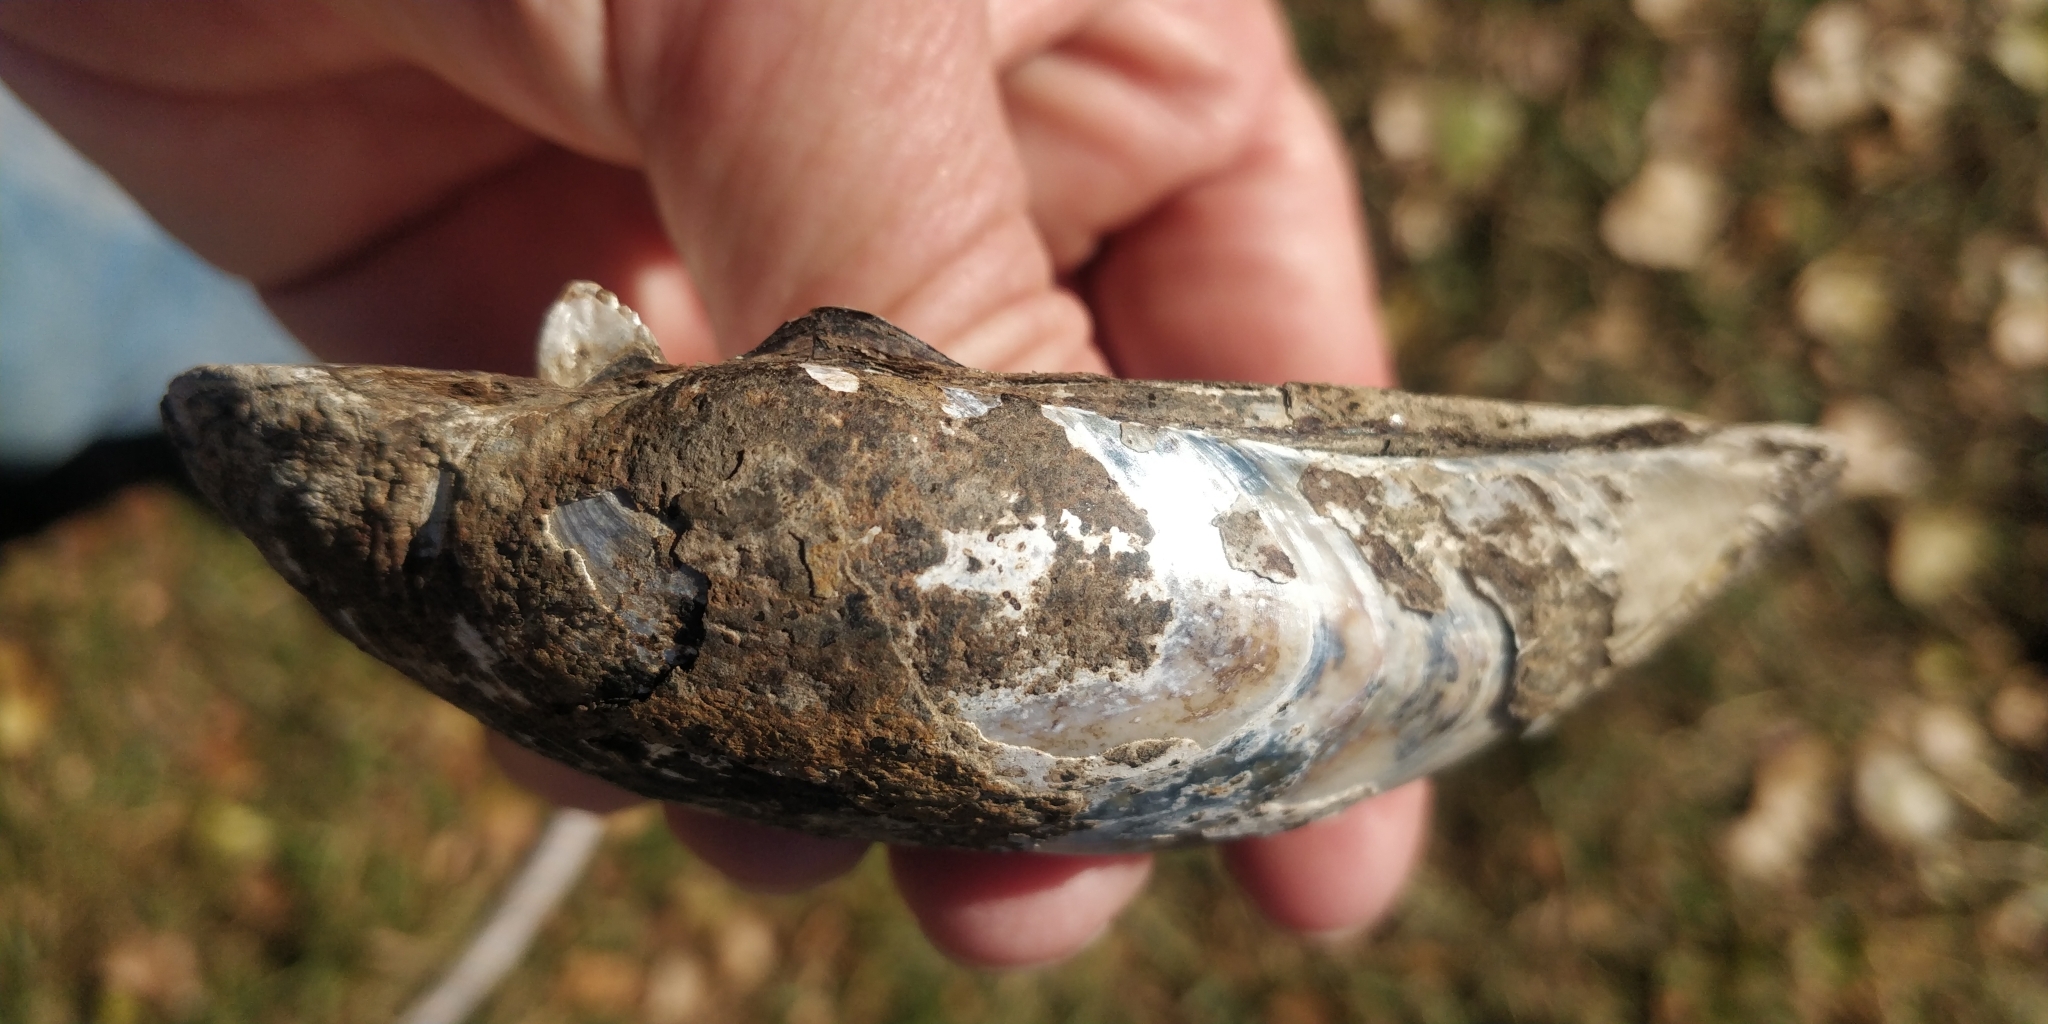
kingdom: Animalia
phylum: Mollusca
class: Bivalvia
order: Unionida
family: Unionidae
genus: Lampsilis
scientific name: Lampsilis siliquoidea
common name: Fatmucket
